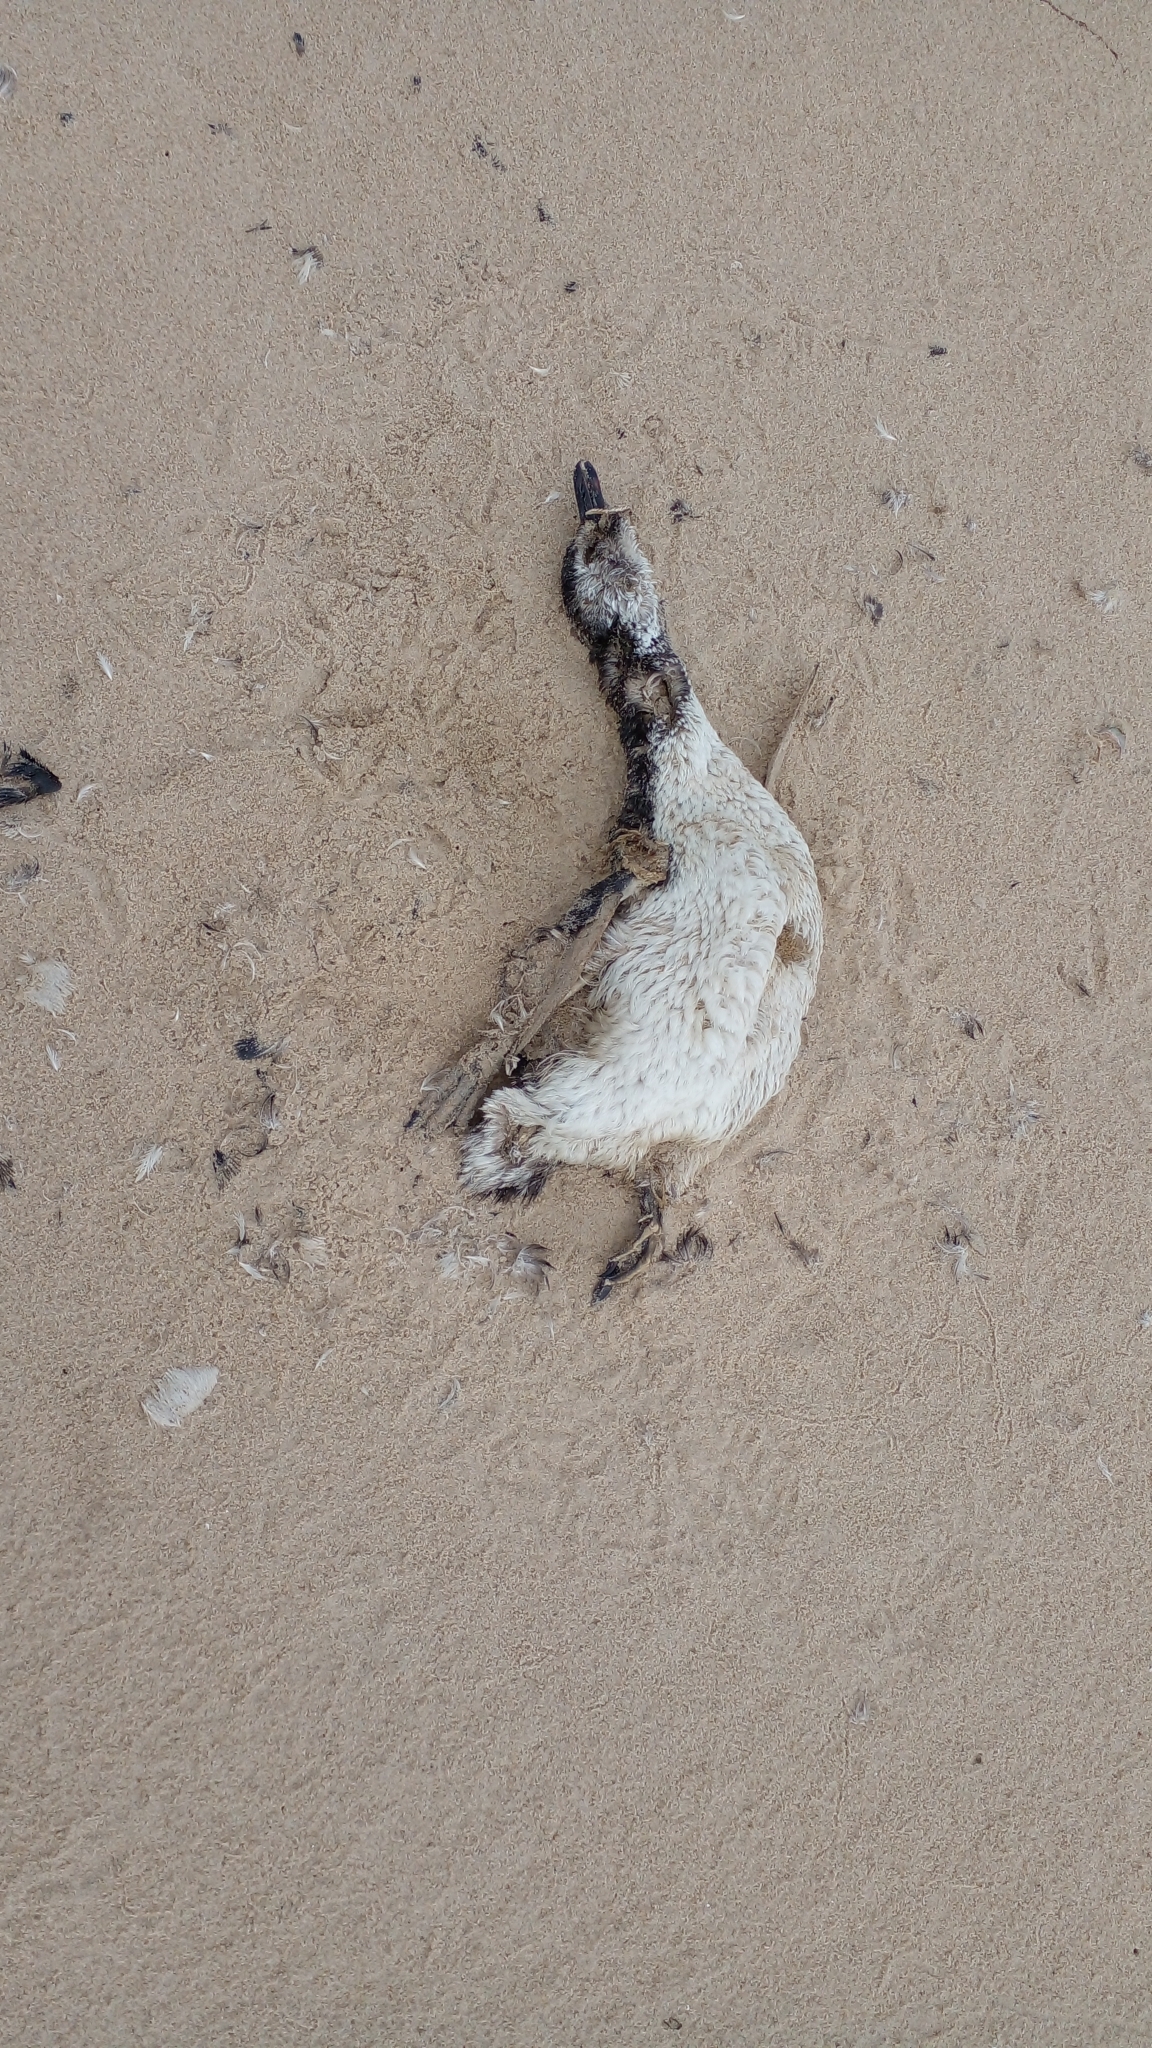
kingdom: Animalia
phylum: Chordata
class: Aves
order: Sphenisciformes
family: Spheniscidae
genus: Spheniscus
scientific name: Spheniscus magellanicus
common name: Magellanic penguin
